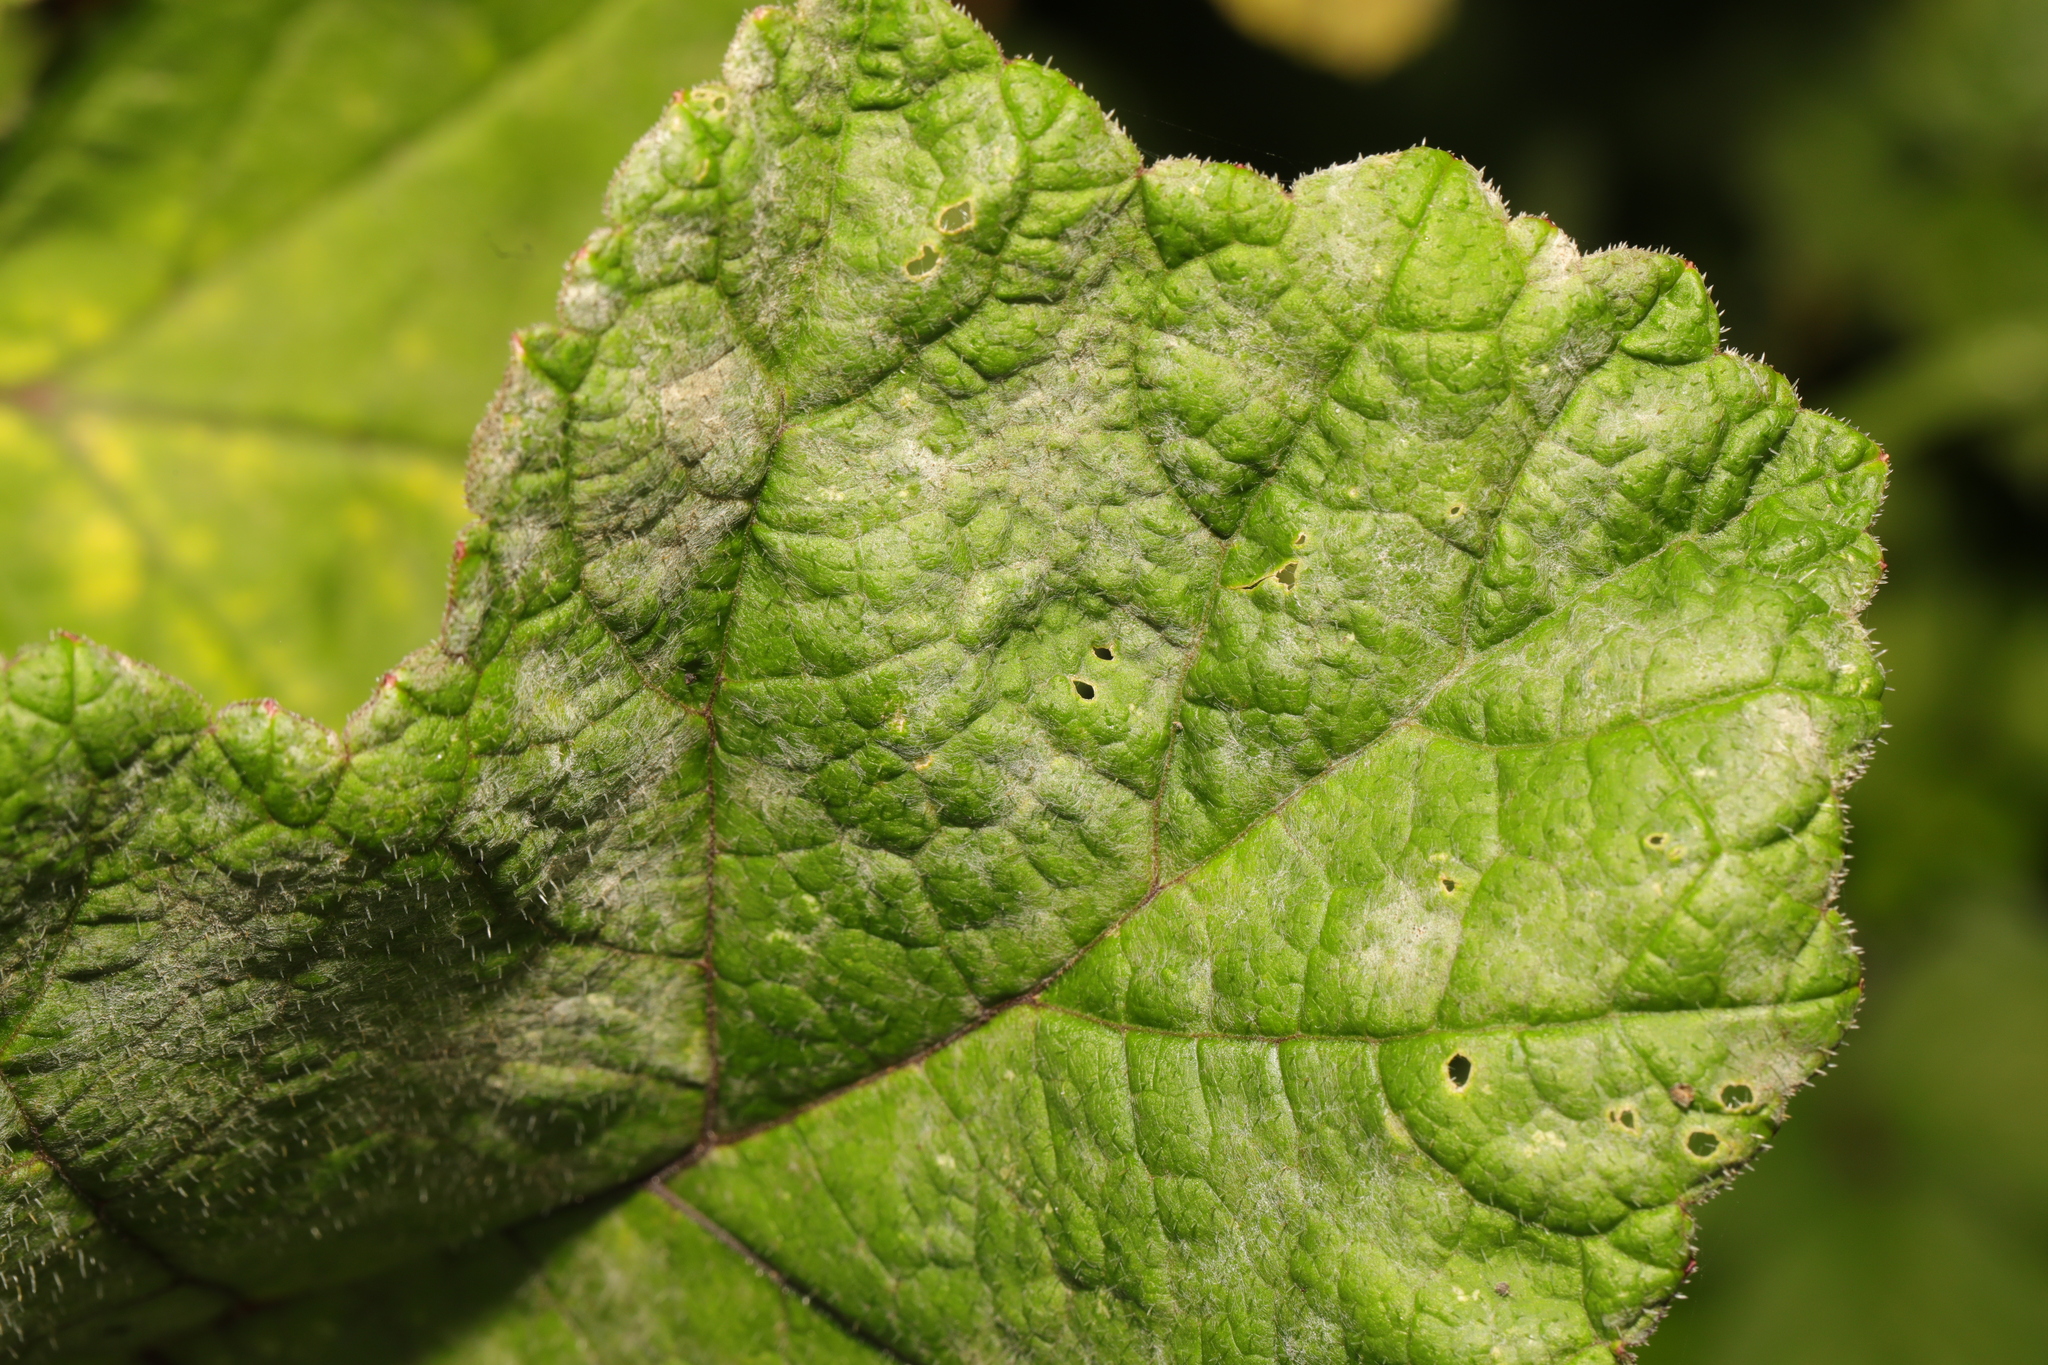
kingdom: Fungi
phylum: Ascomycota
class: Leotiomycetes
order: Helotiales
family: Erysiphaceae
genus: Erysiphe
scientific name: Erysiphe heraclei
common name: Umbellifer mildew
